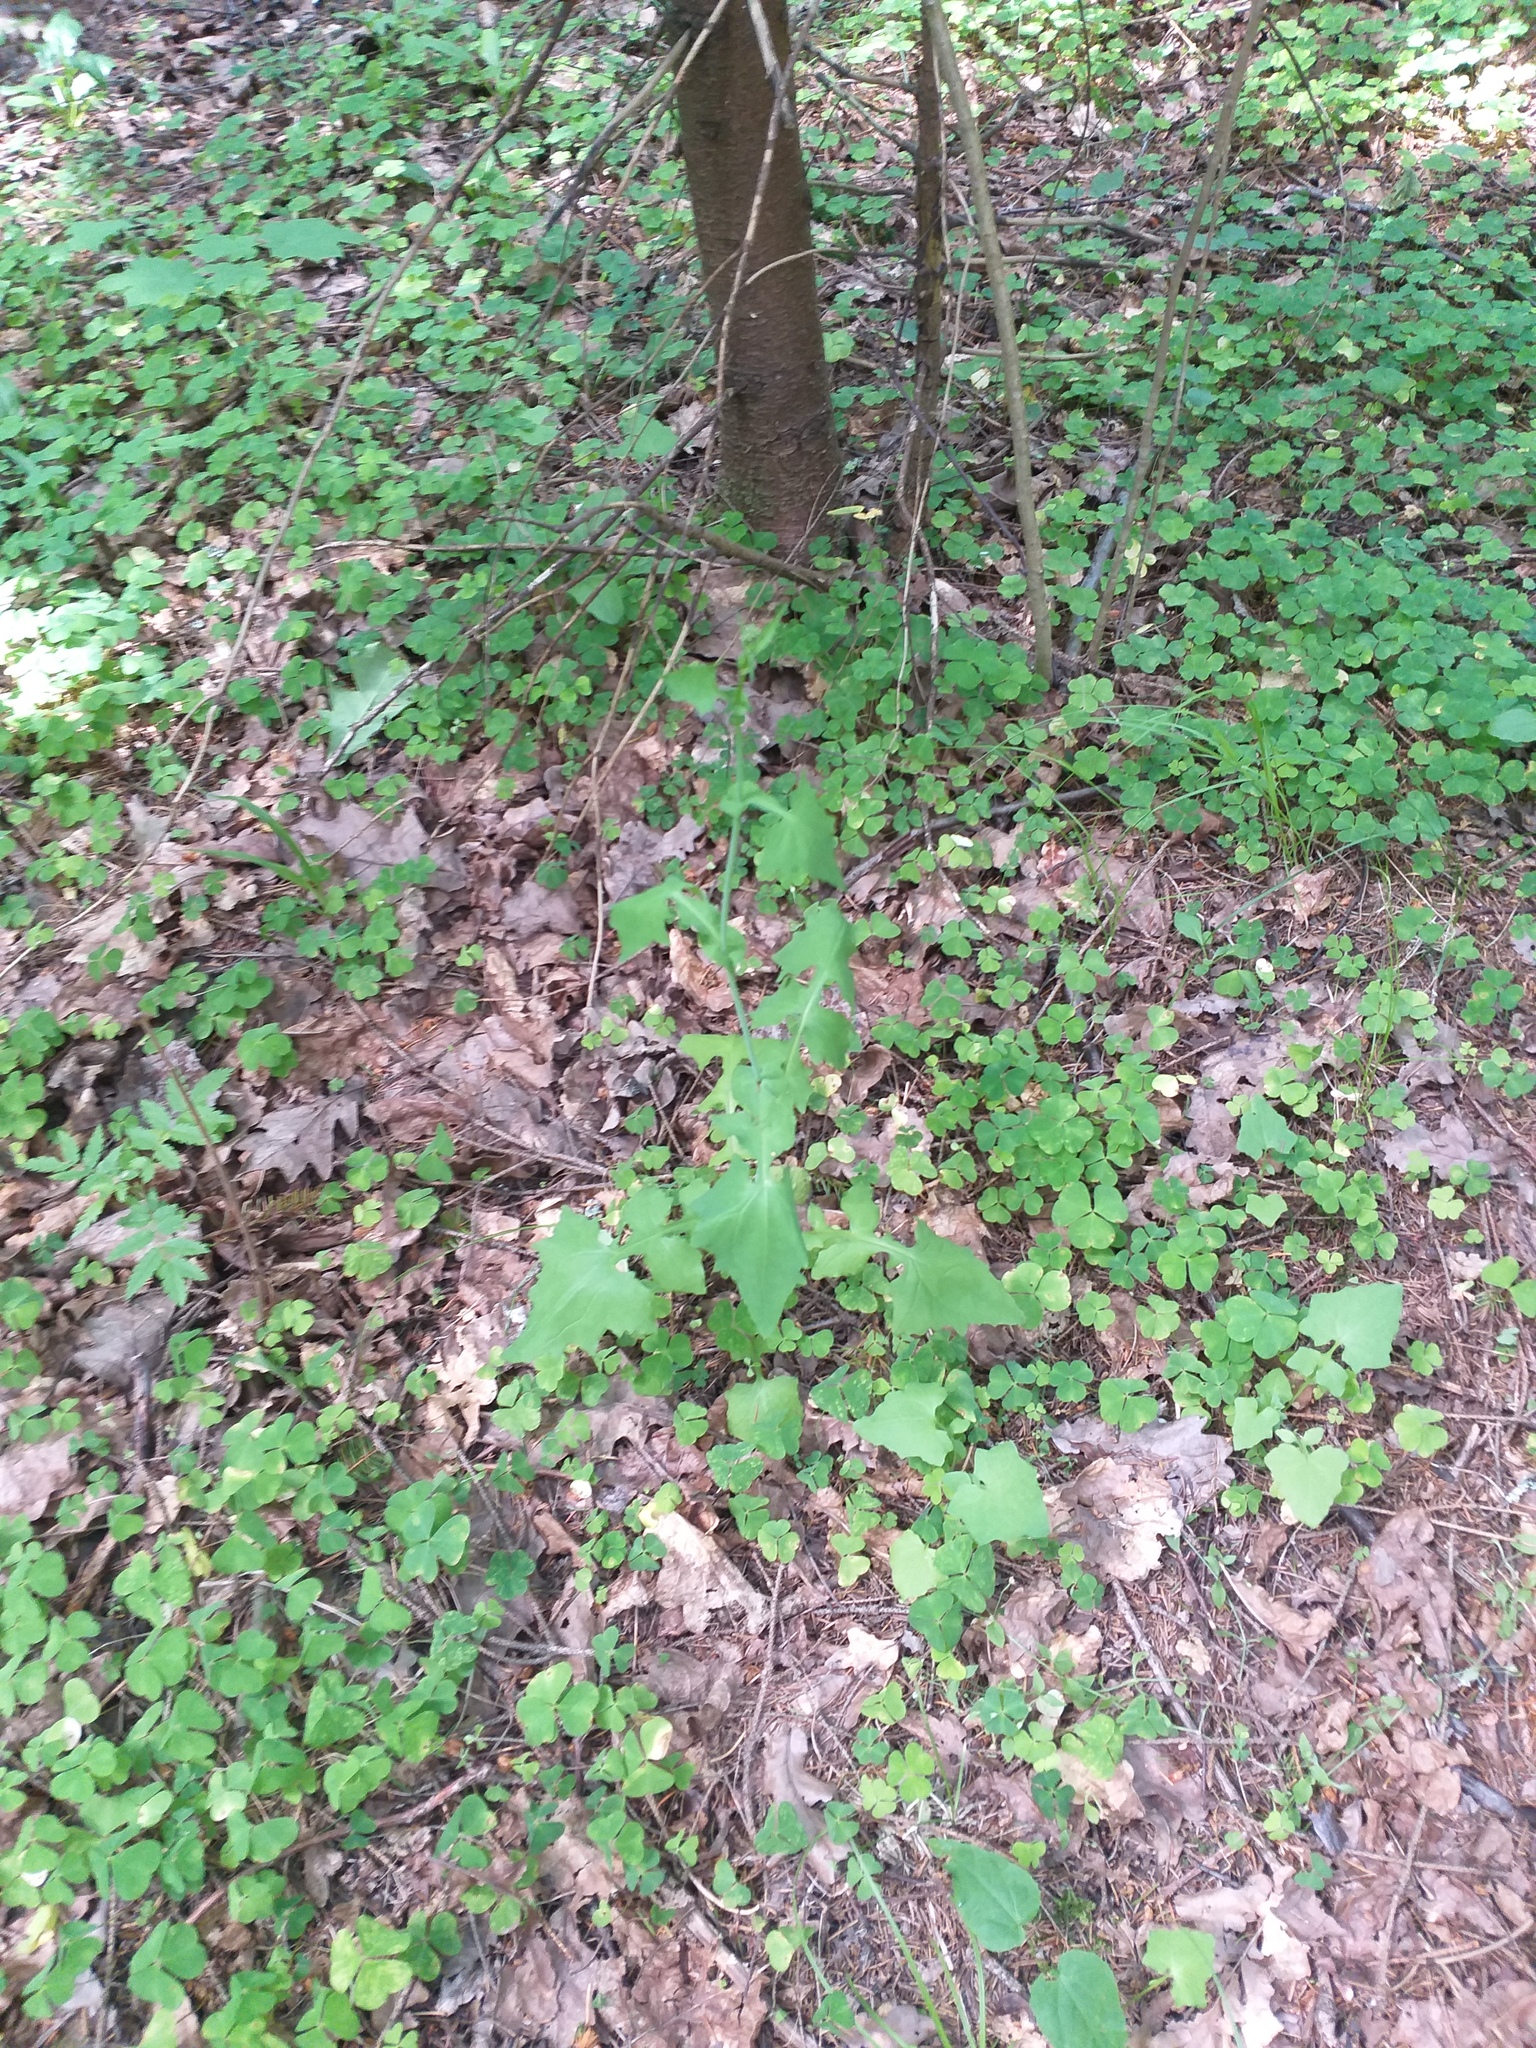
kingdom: Plantae
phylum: Tracheophyta
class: Magnoliopsida
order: Asterales
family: Asteraceae
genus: Mycelis
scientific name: Mycelis muralis
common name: Wall lettuce
